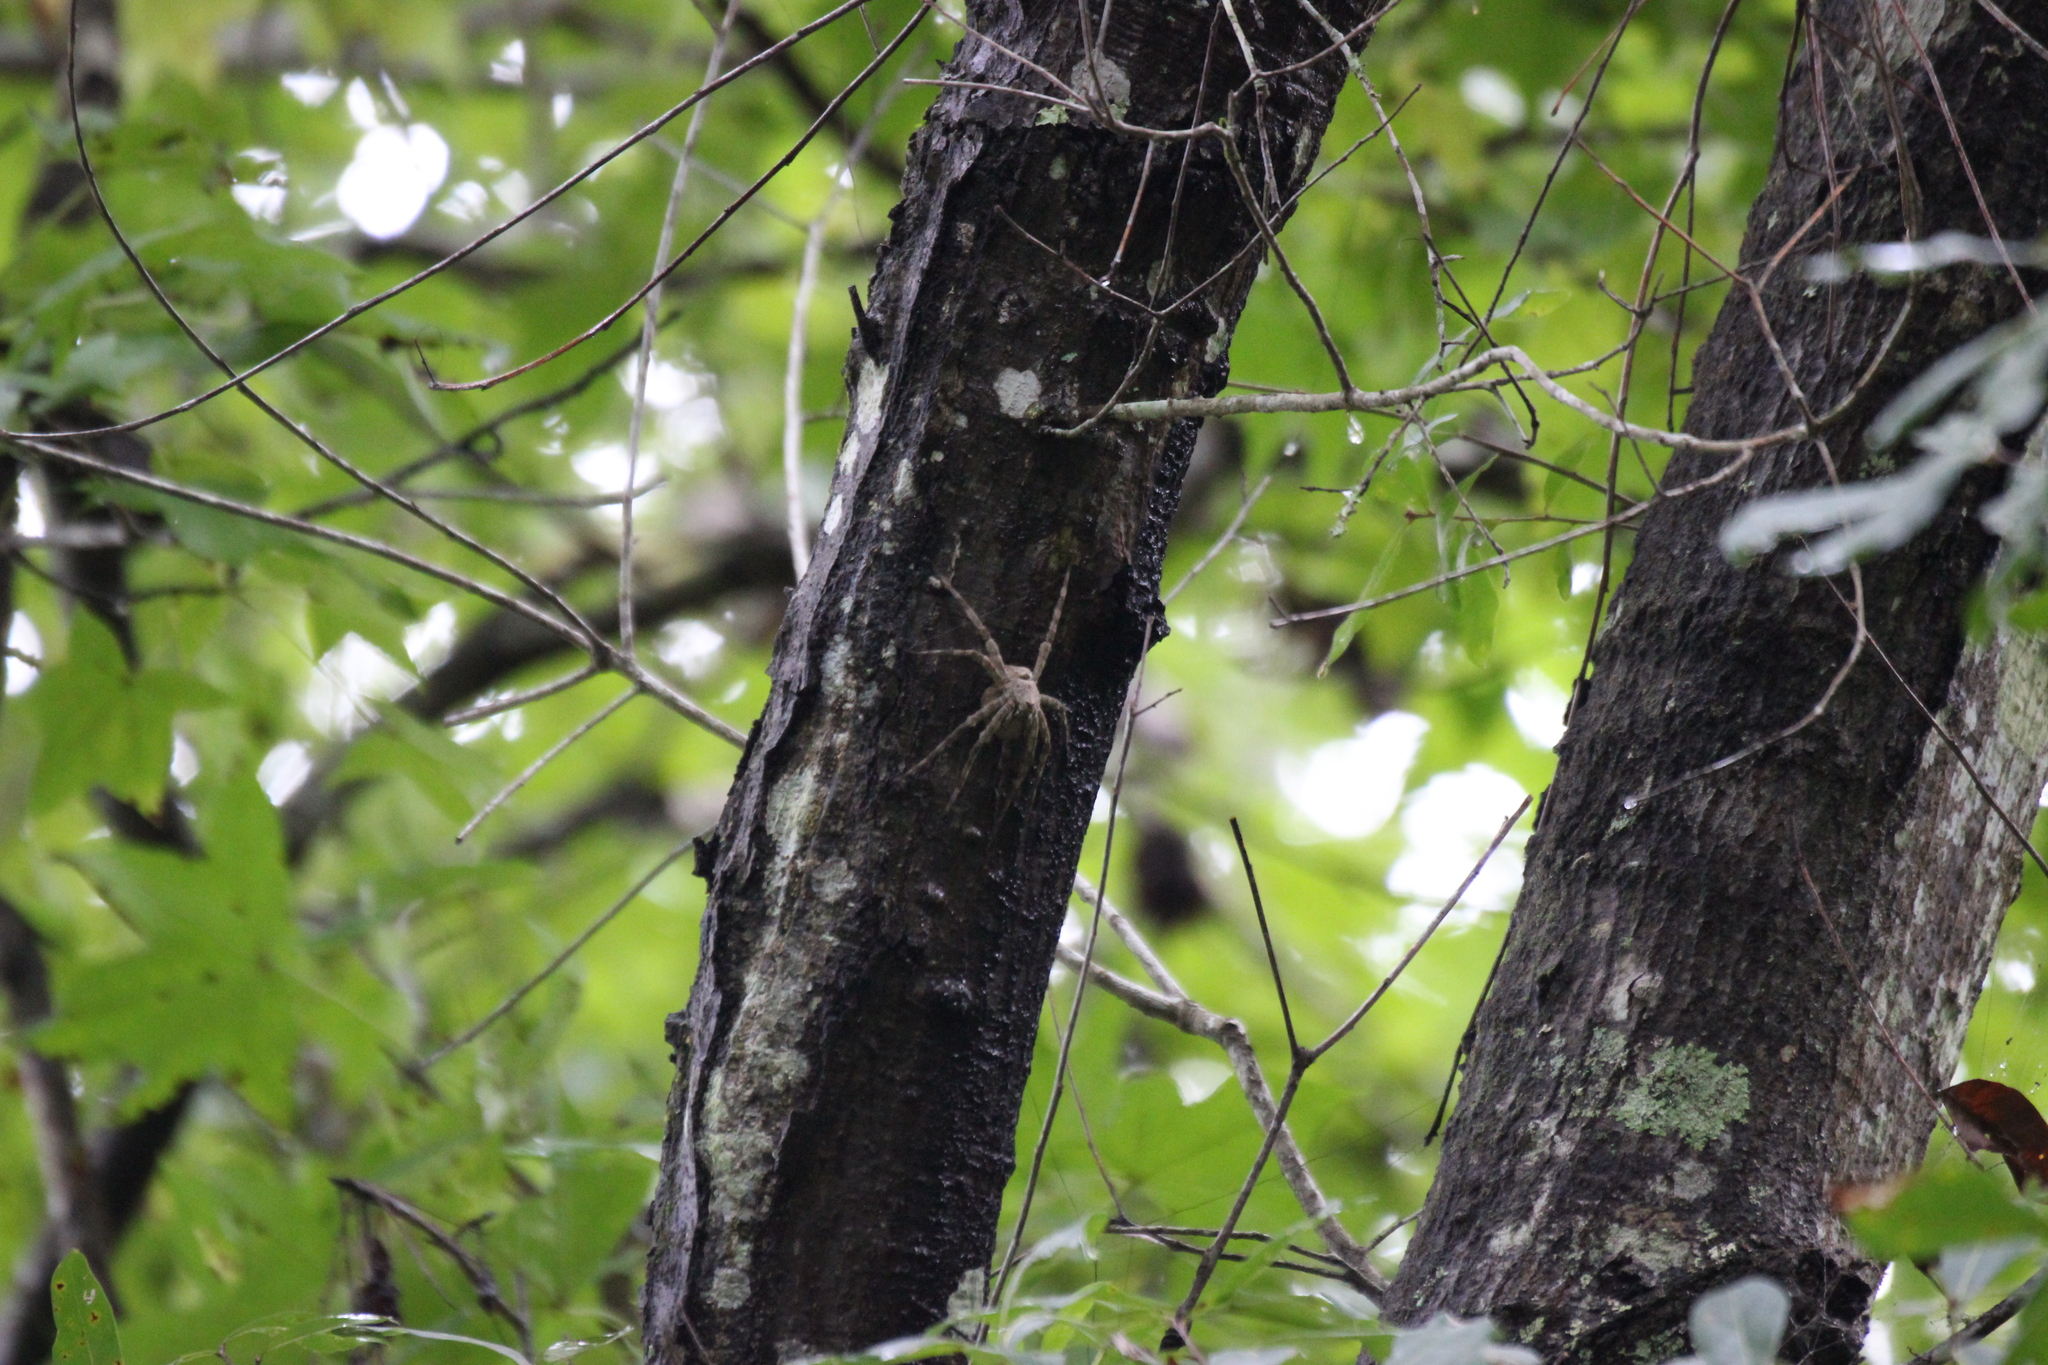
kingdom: Animalia
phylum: Arthropoda
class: Arachnida
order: Araneae
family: Pisauridae
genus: Dolomedes
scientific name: Dolomedes albineus
